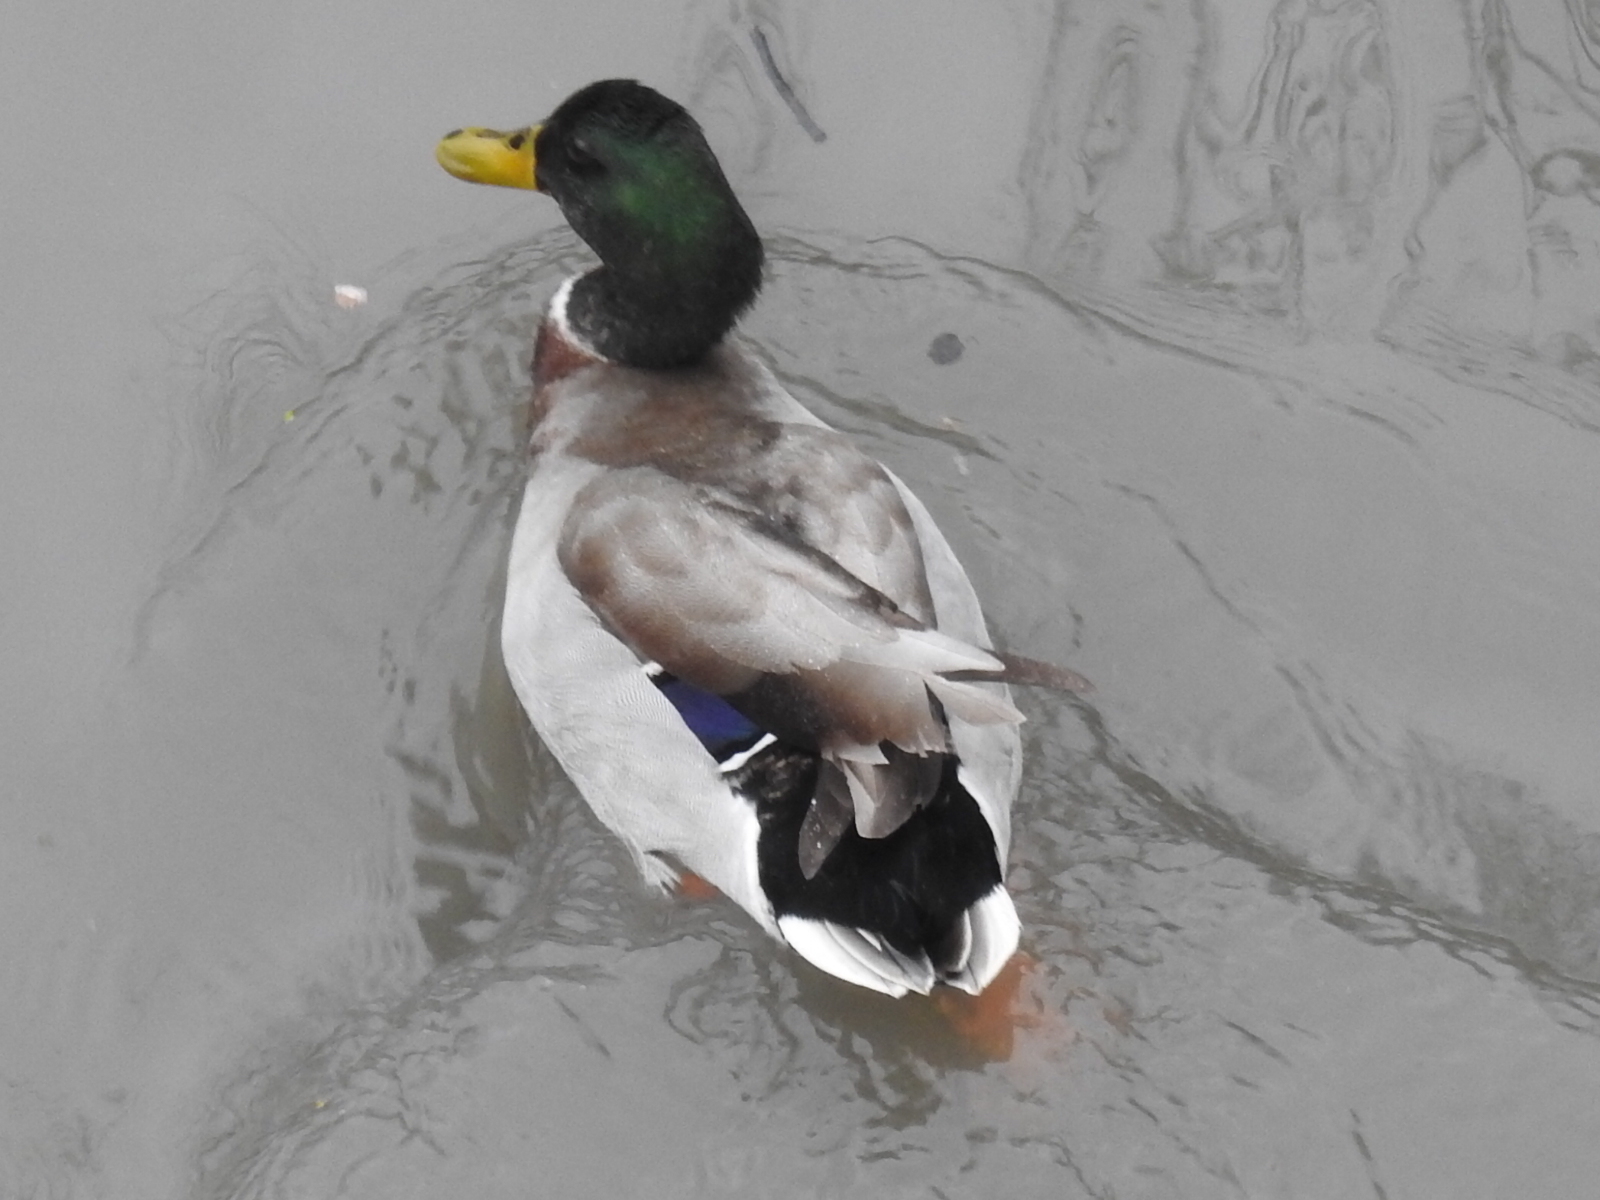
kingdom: Animalia
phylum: Chordata
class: Aves
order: Anseriformes
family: Anatidae
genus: Anas
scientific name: Anas platyrhynchos
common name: Mallard
